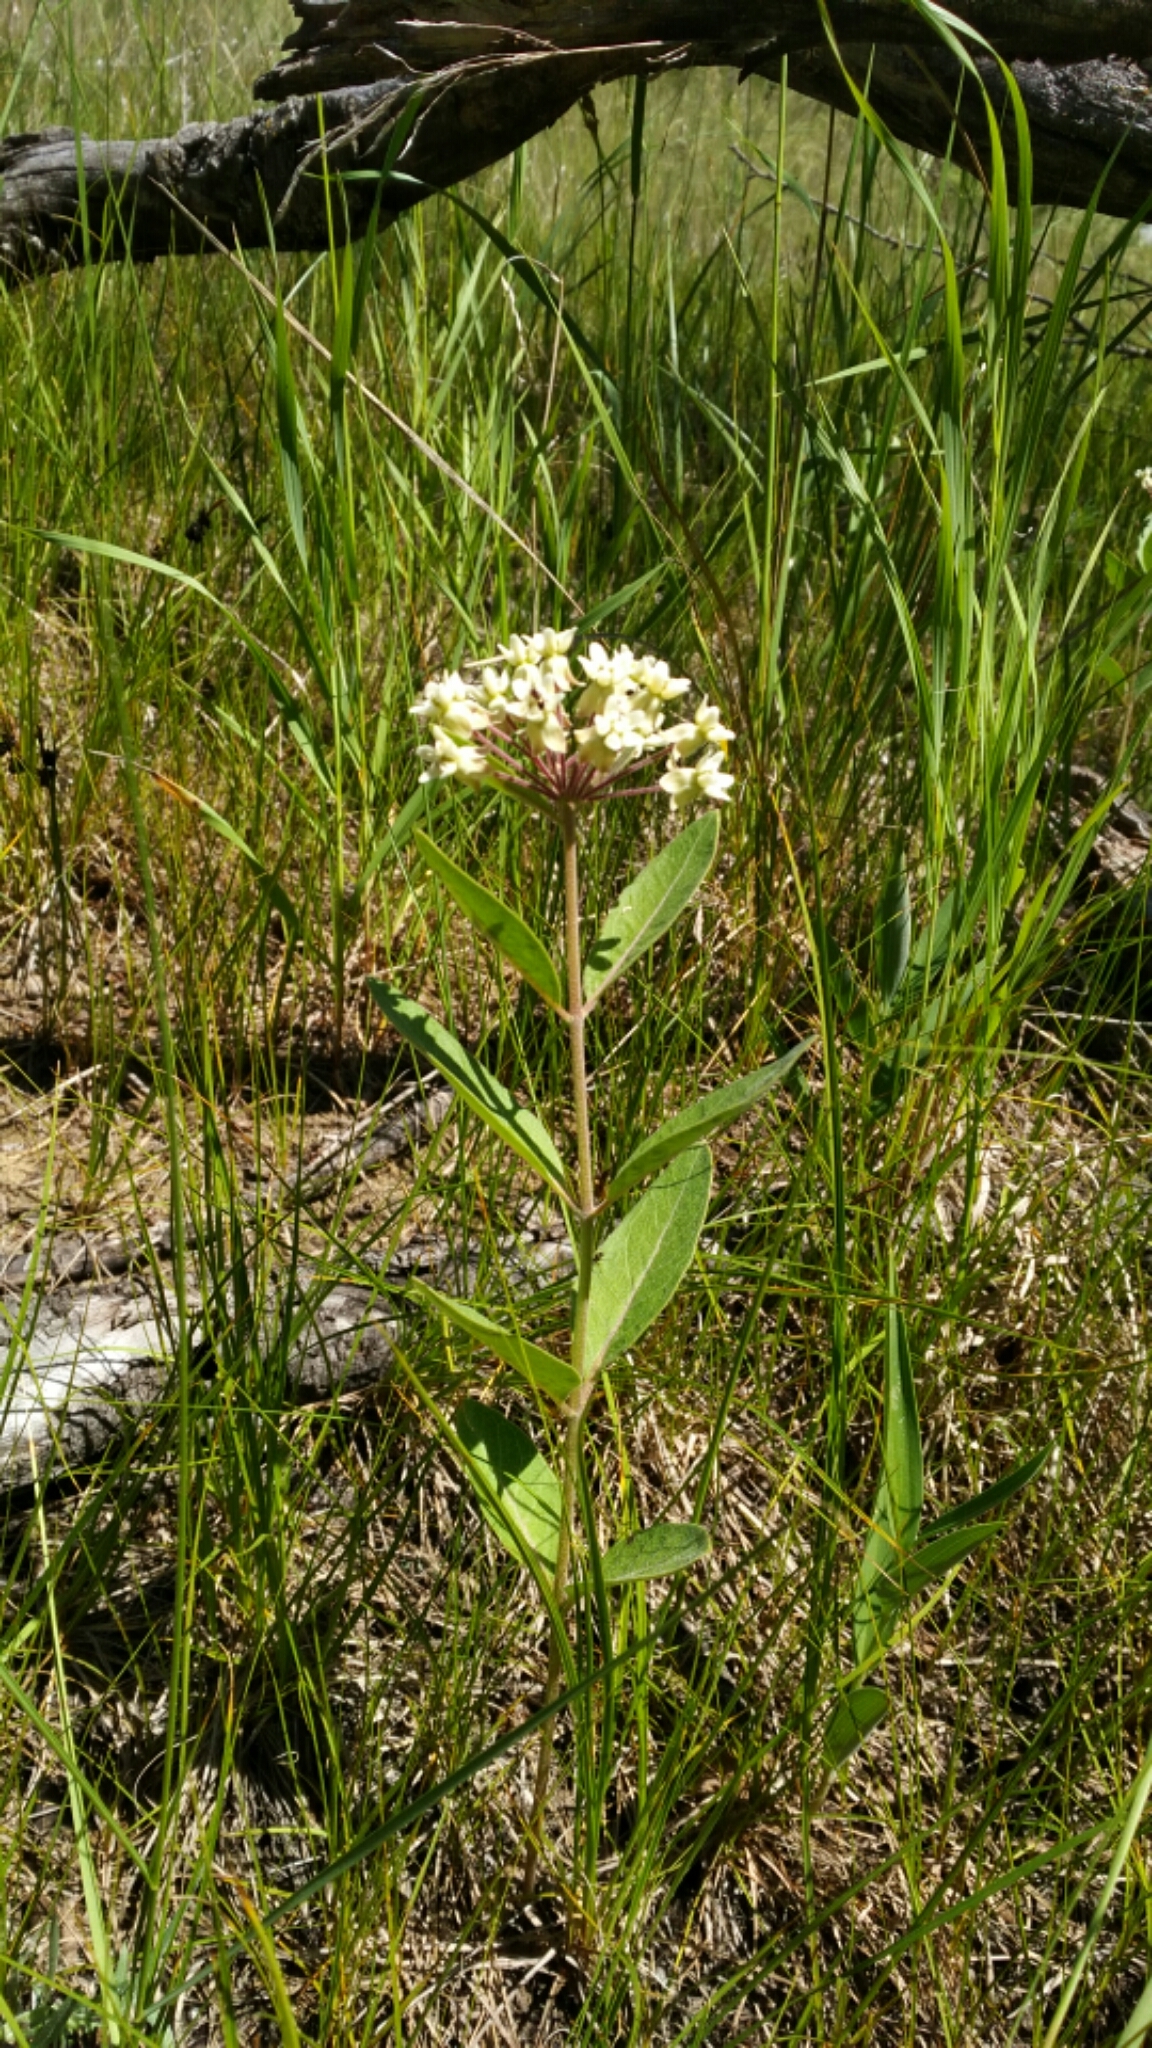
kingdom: Plantae
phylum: Tracheophyta
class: Magnoliopsida
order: Gentianales
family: Apocynaceae
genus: Asclepias
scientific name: Asclepias ovalifolia
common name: Dwarf milkweed
